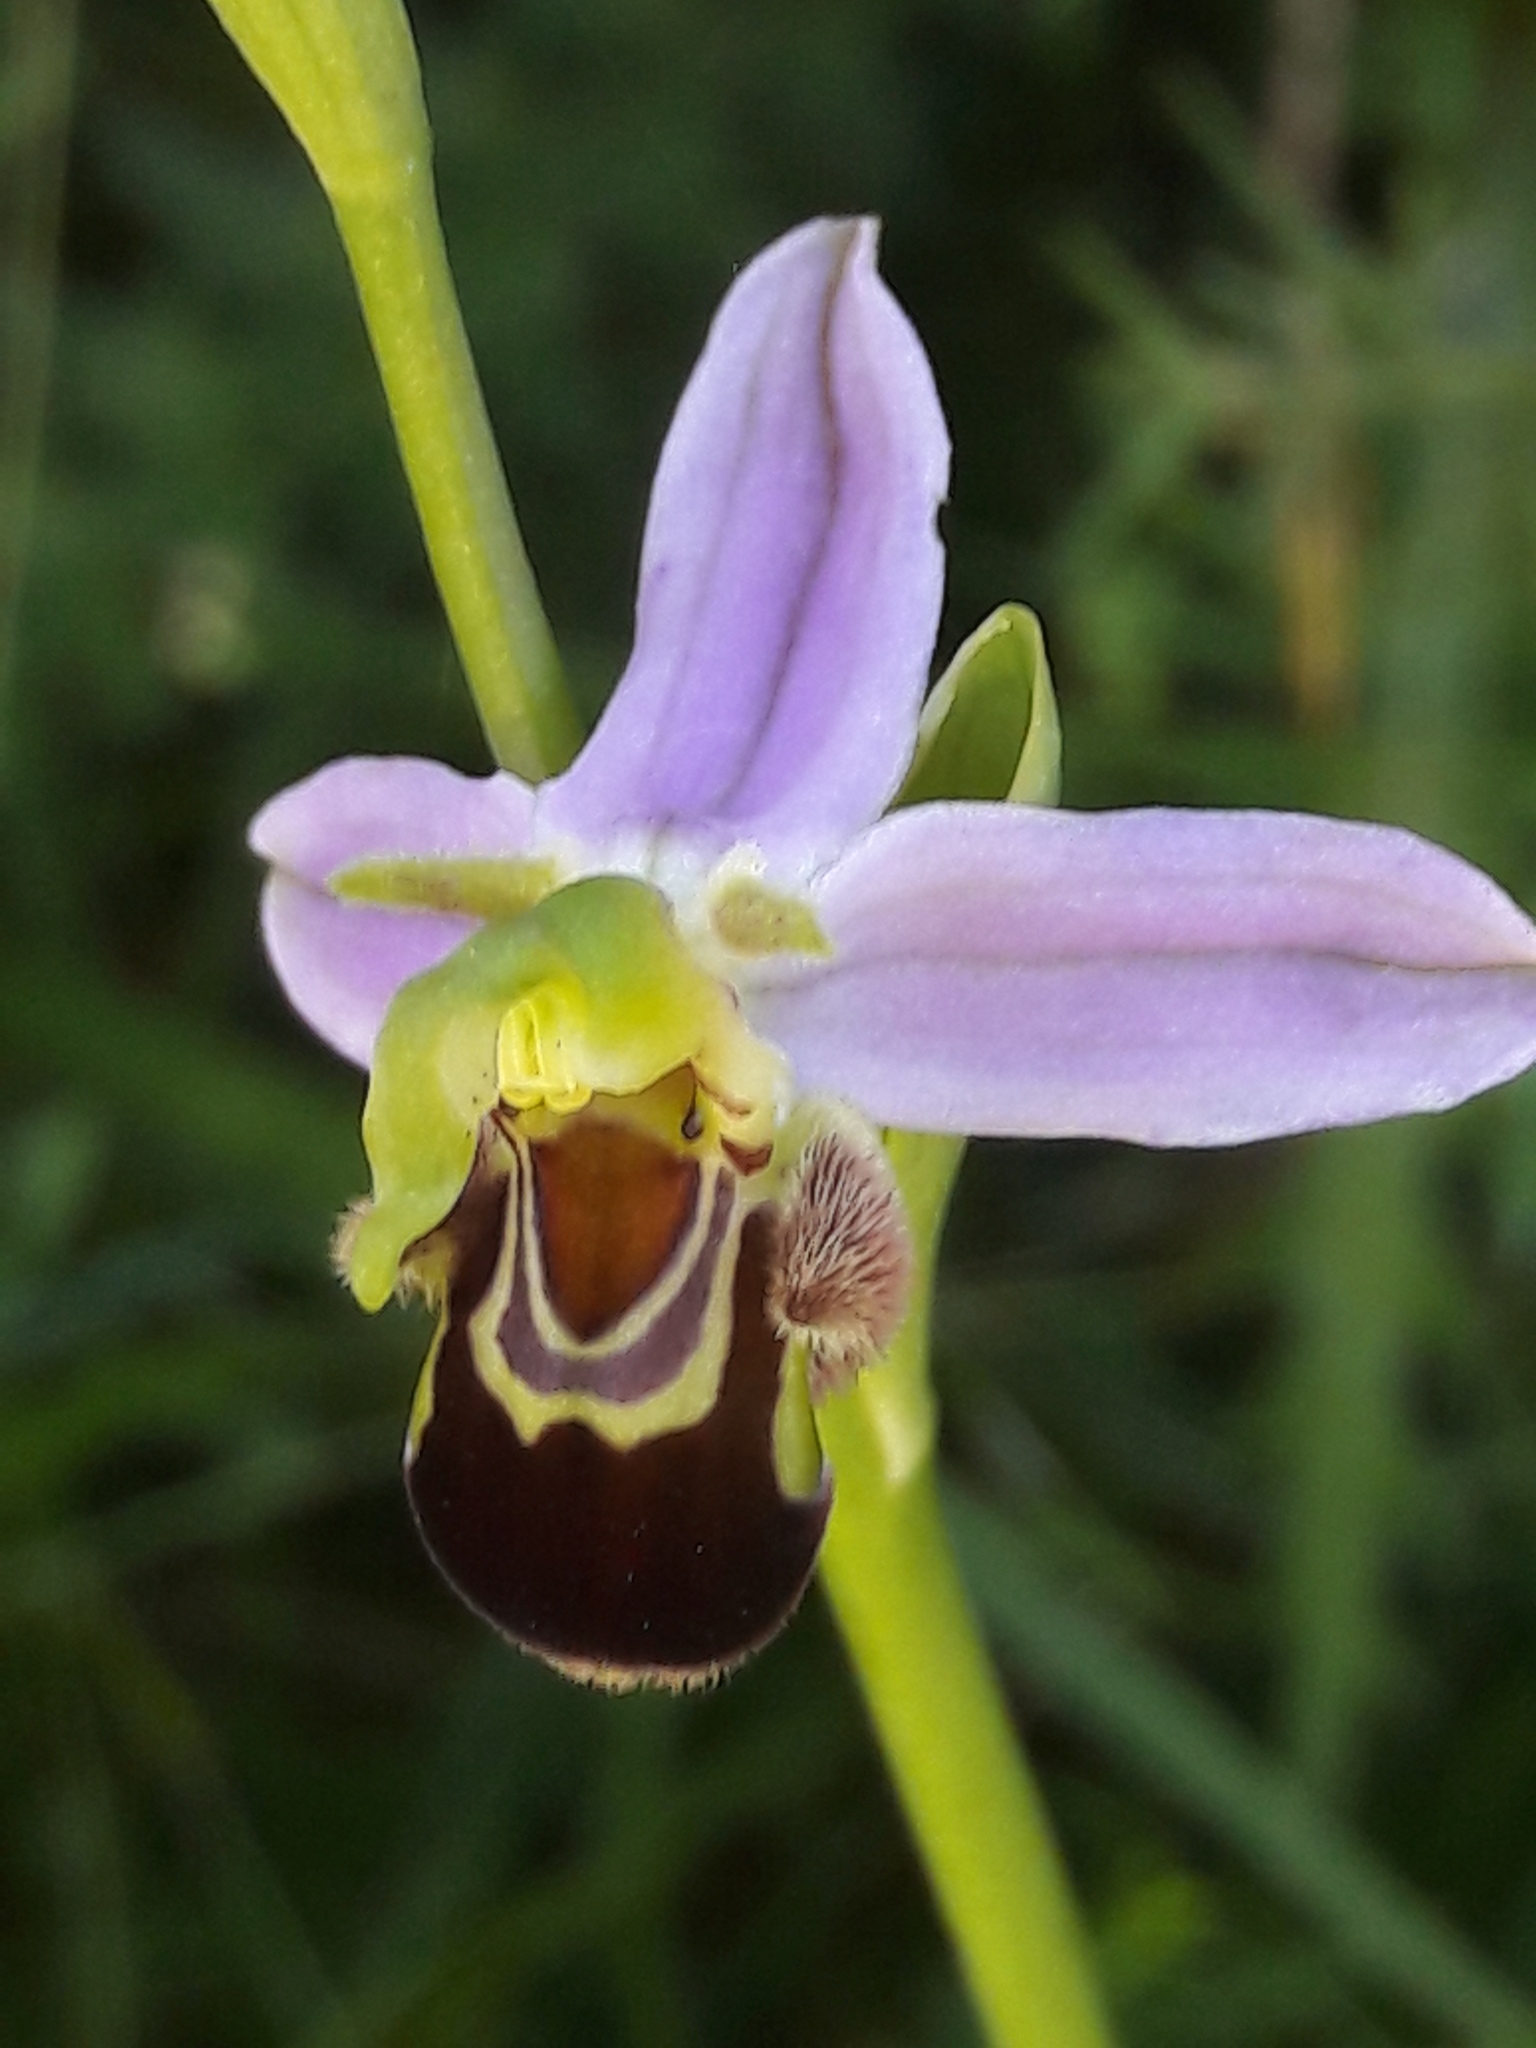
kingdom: Plantae
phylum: Tracheophyta
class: Liliopsida
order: Asparagales
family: Orchidaceae
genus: Ophrys
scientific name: Ophrys apifera
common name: Bee orchid
